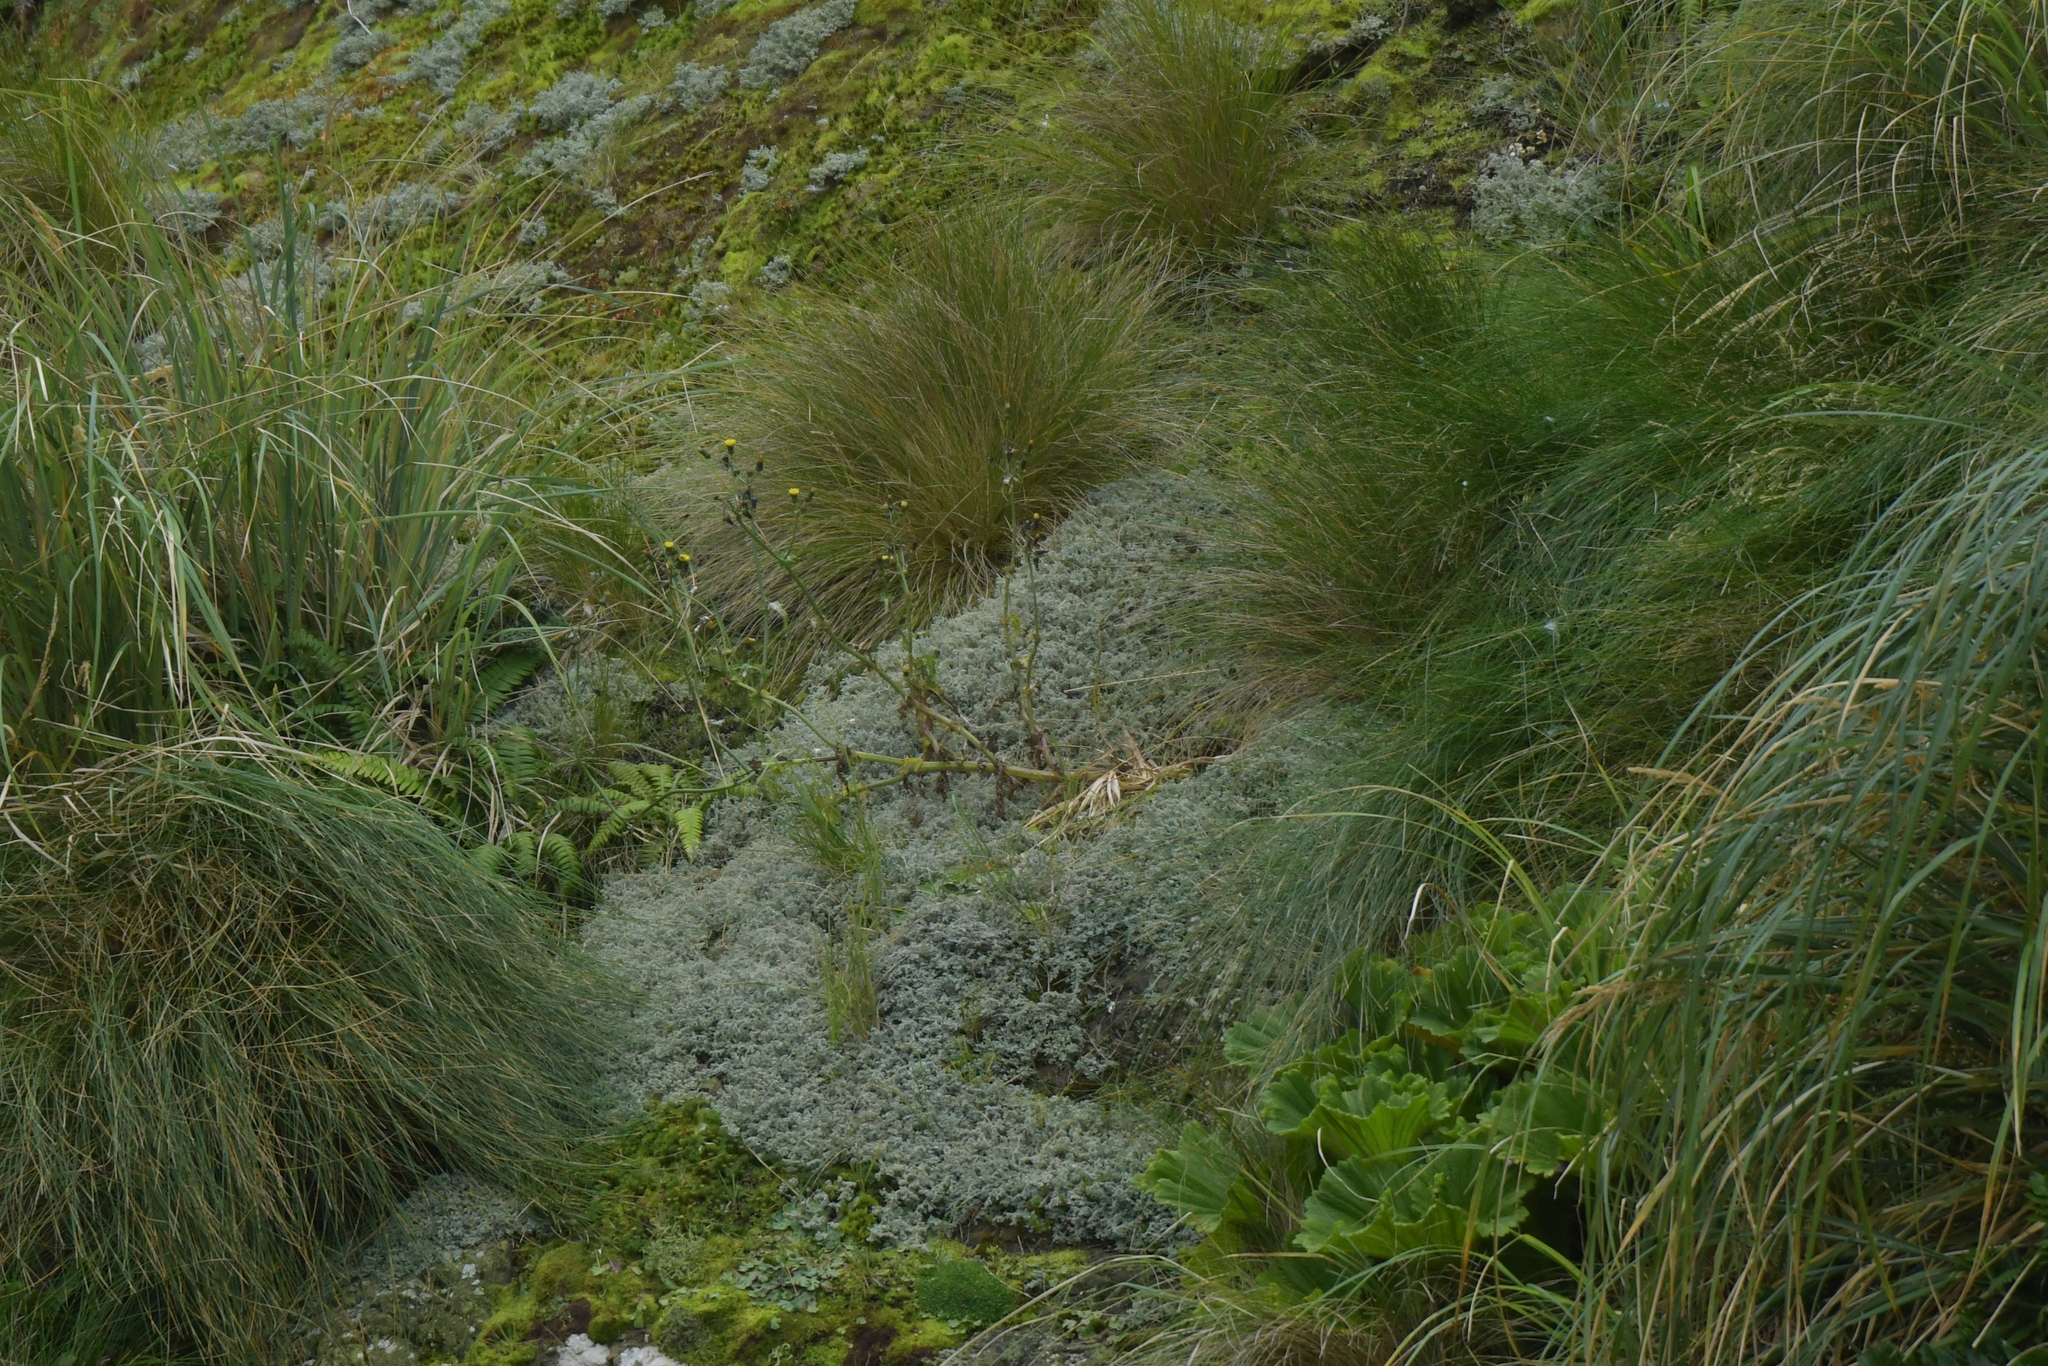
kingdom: Plantae
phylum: Tracheophyta
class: Magnoliopsida
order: Asterales
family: Asteraceae
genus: Sonchus
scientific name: Sonchus asper
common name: Prickly sow-thistle
